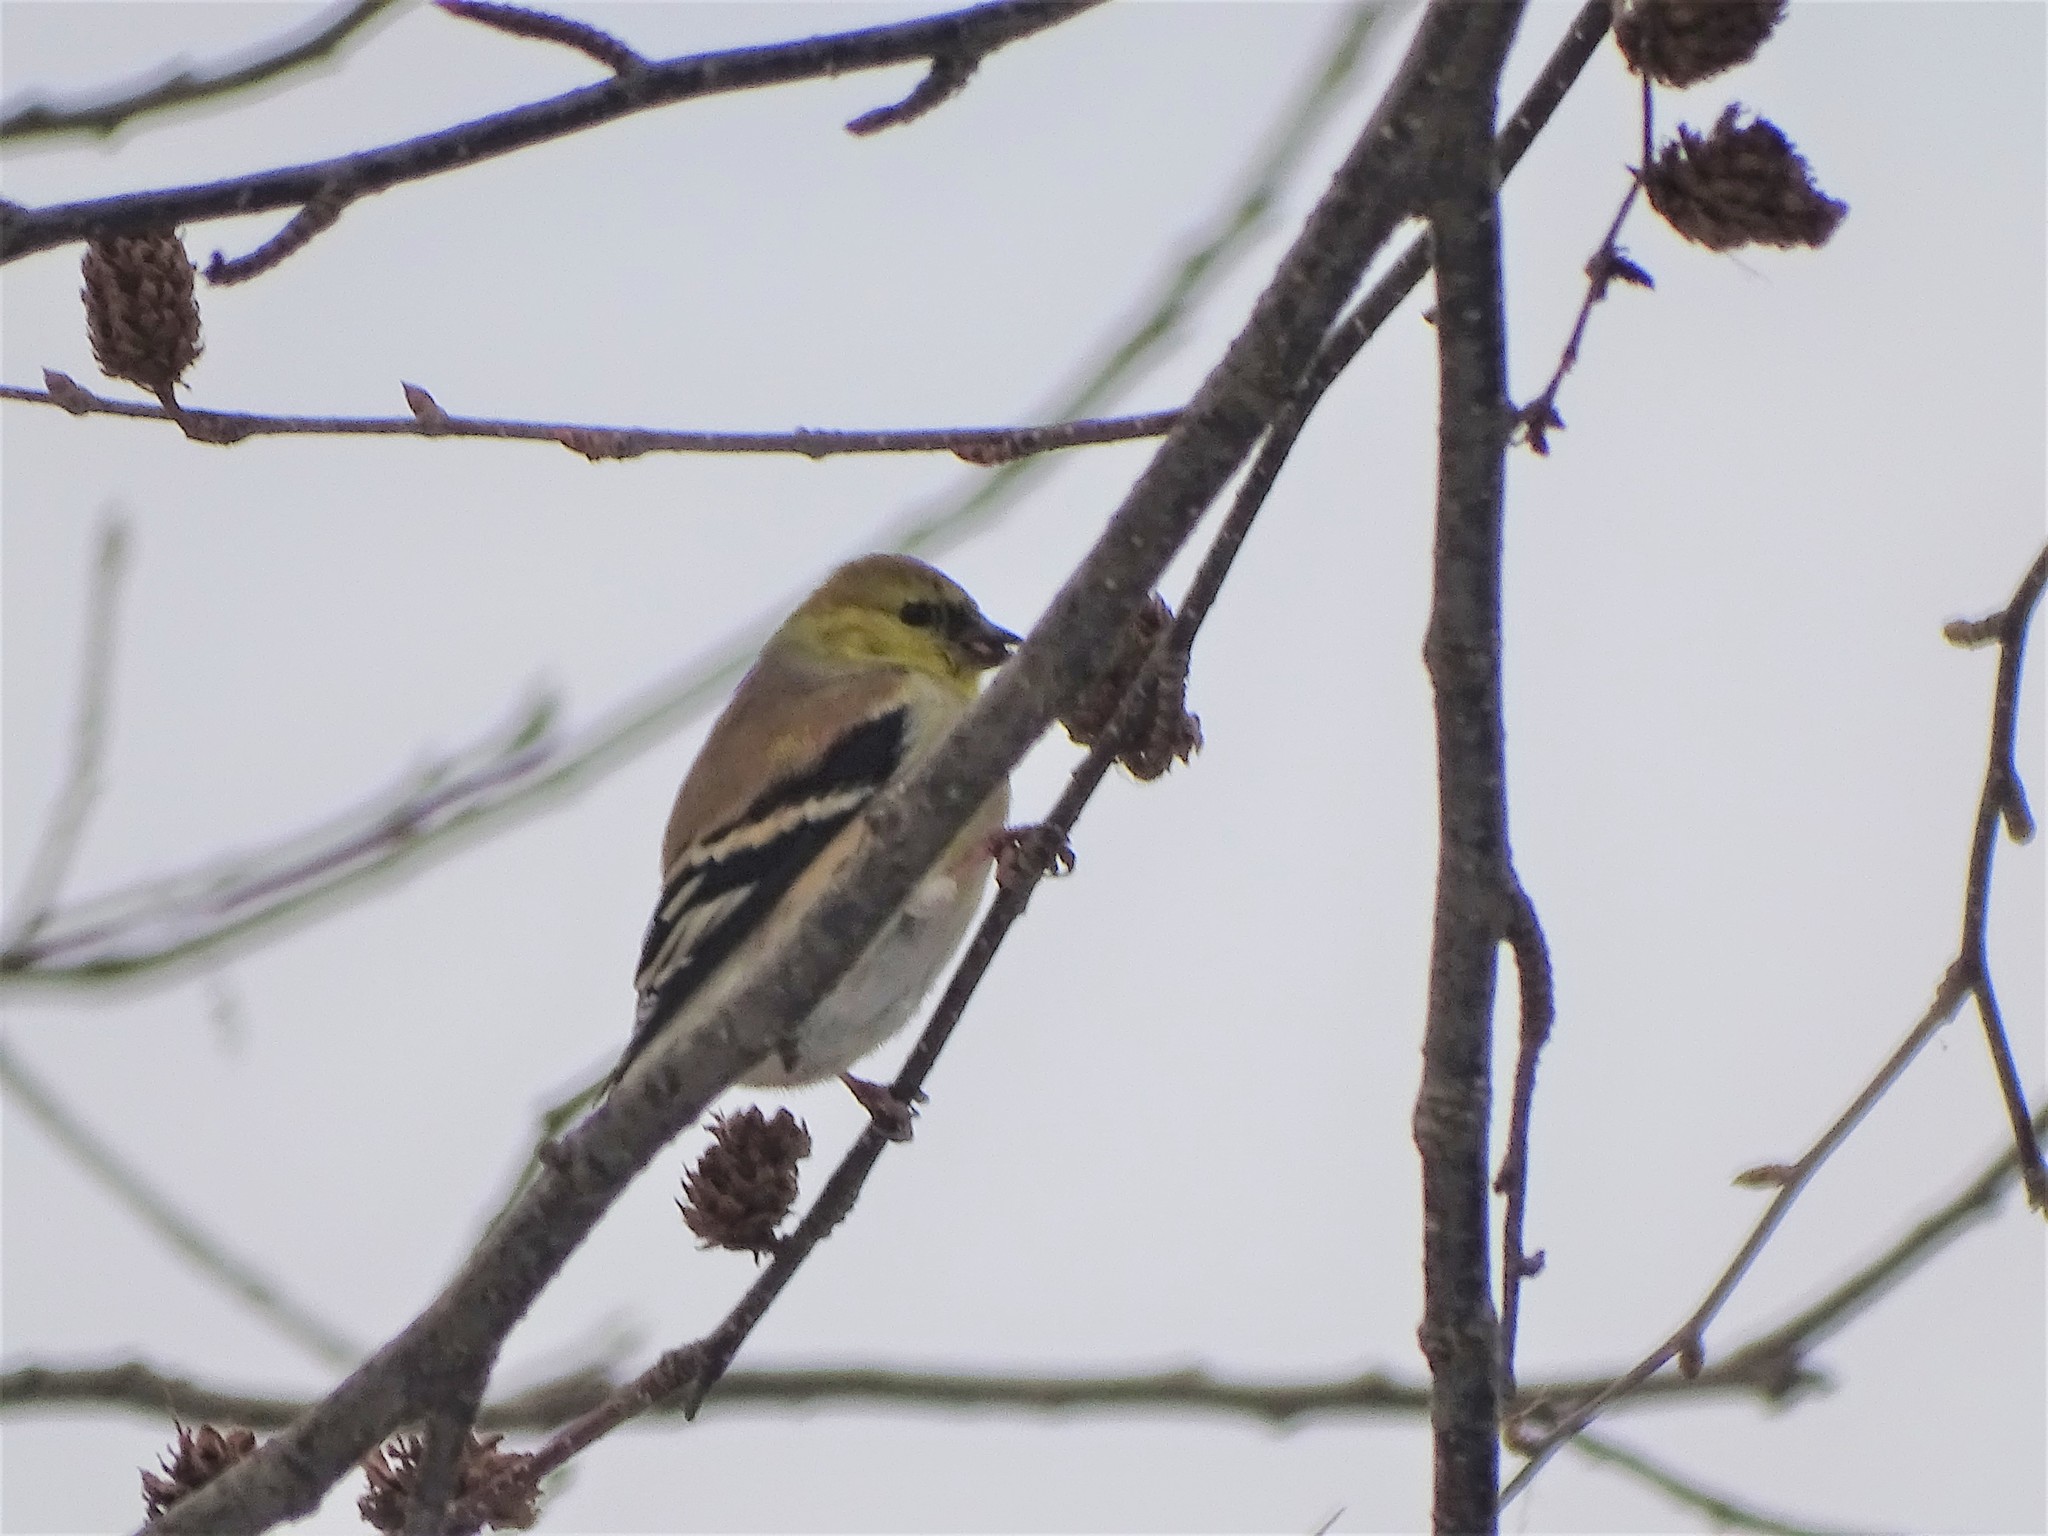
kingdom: Animalia
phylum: Chordata
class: Aves
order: Passeriformes
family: Fringillidae
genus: Spinus
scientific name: Spinus tristis
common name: American goldfinch
